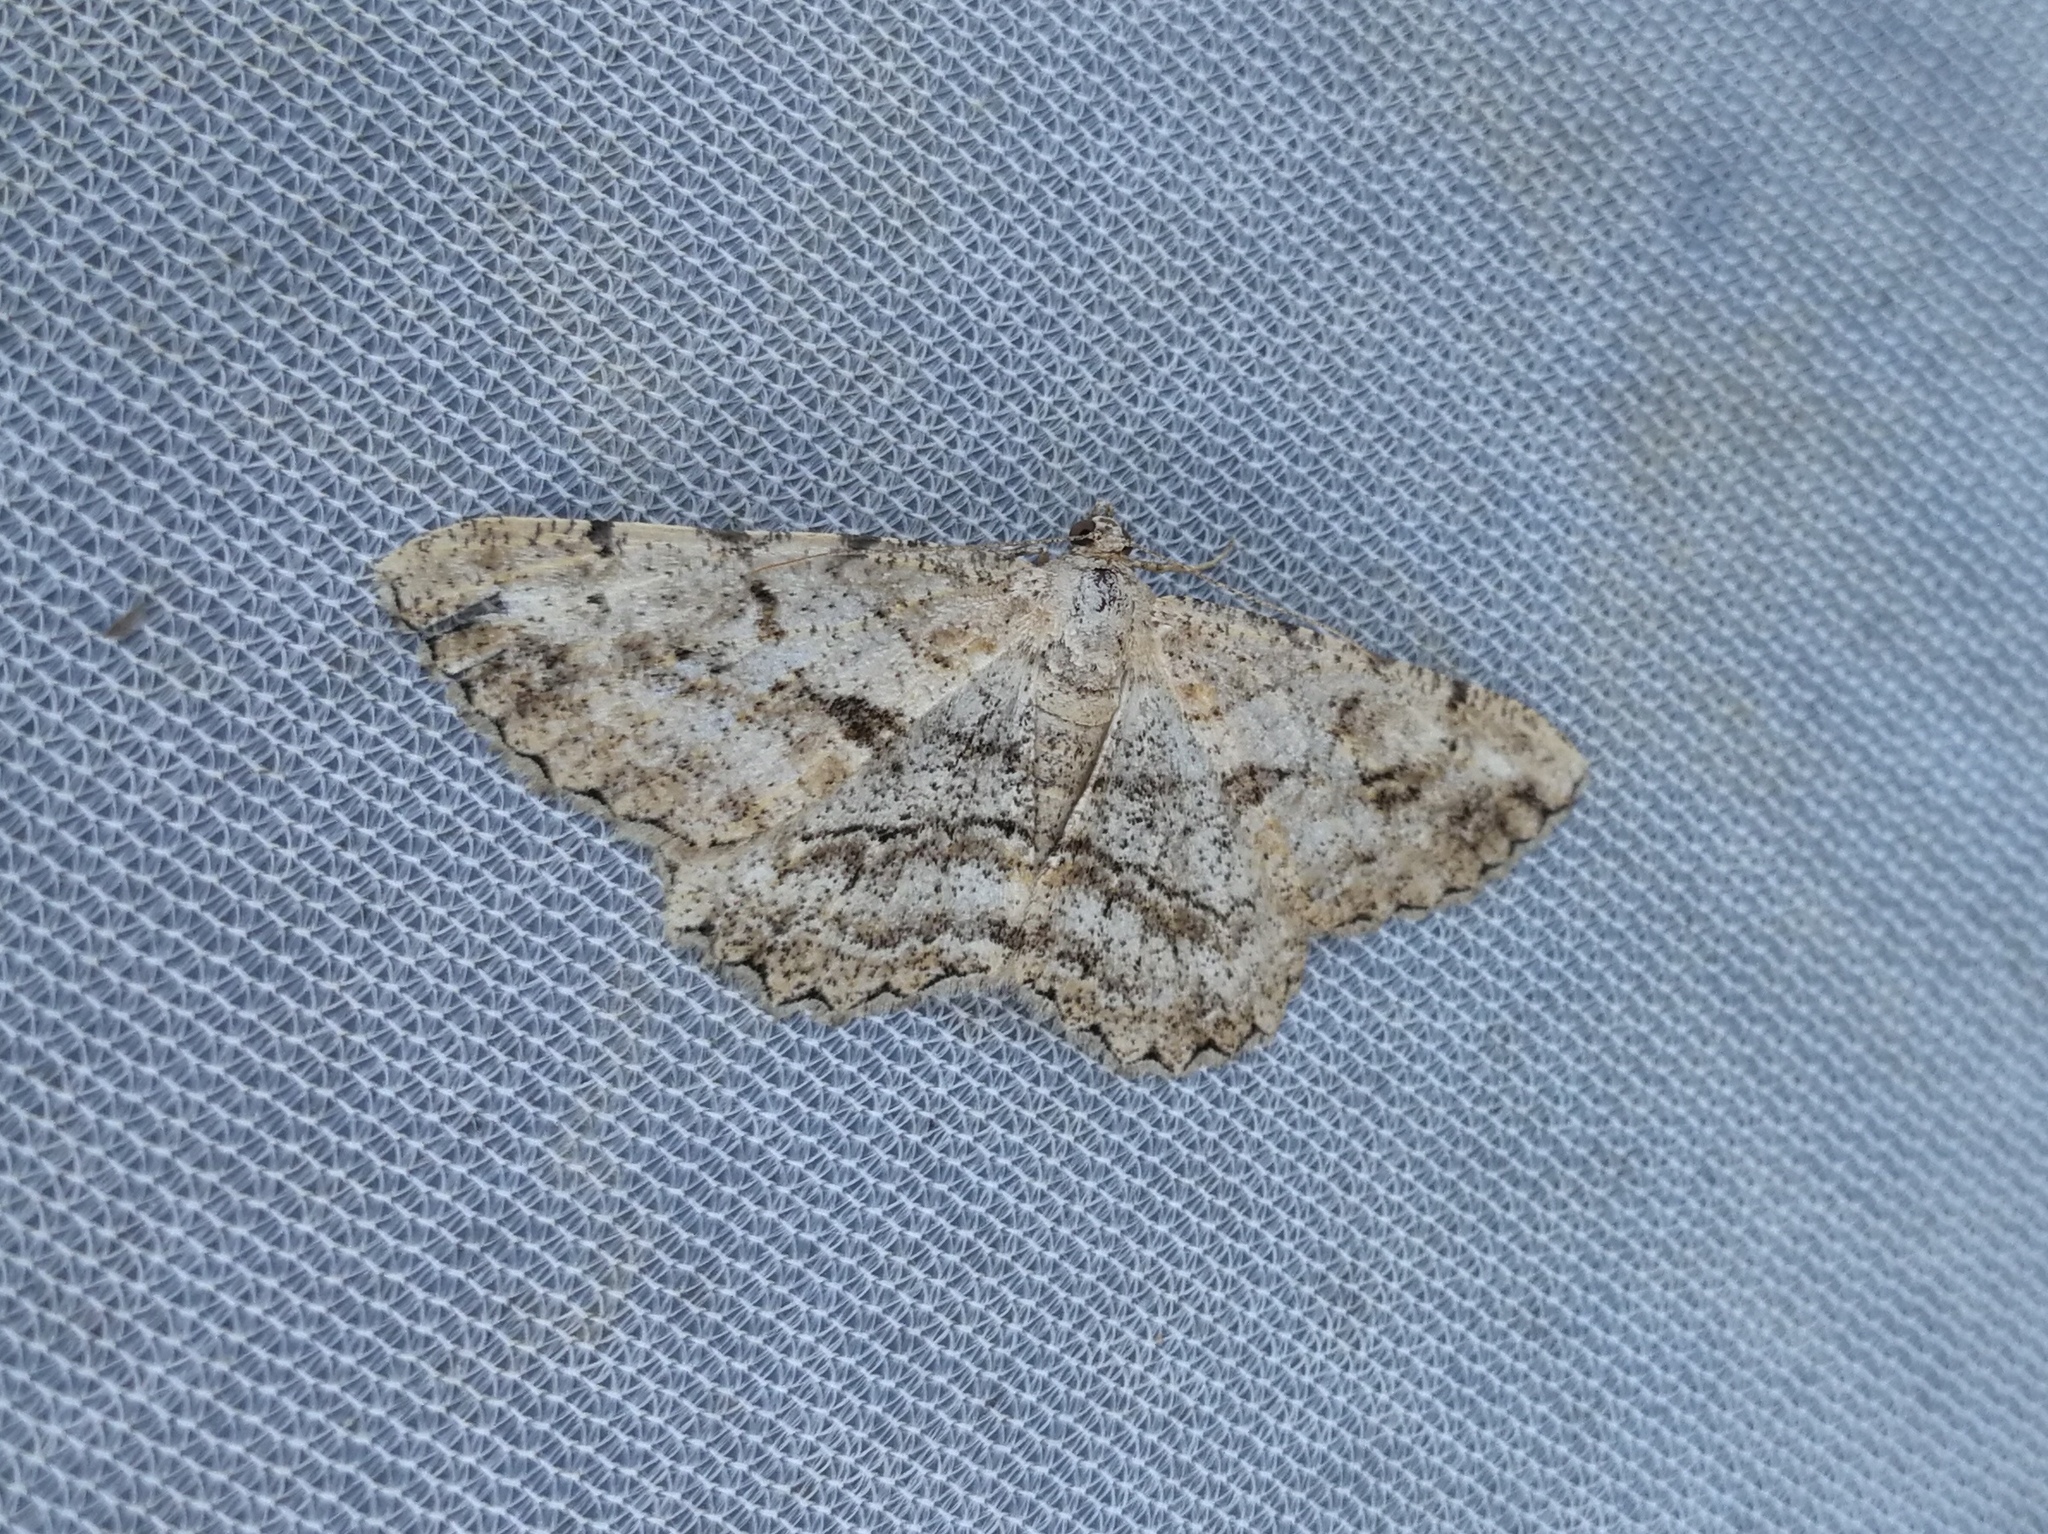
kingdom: Animalia
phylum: Arthropoda
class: Insecta
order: Lepidoptera
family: Geometridae
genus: Peribatodes
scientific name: Peribatodes perversaria
